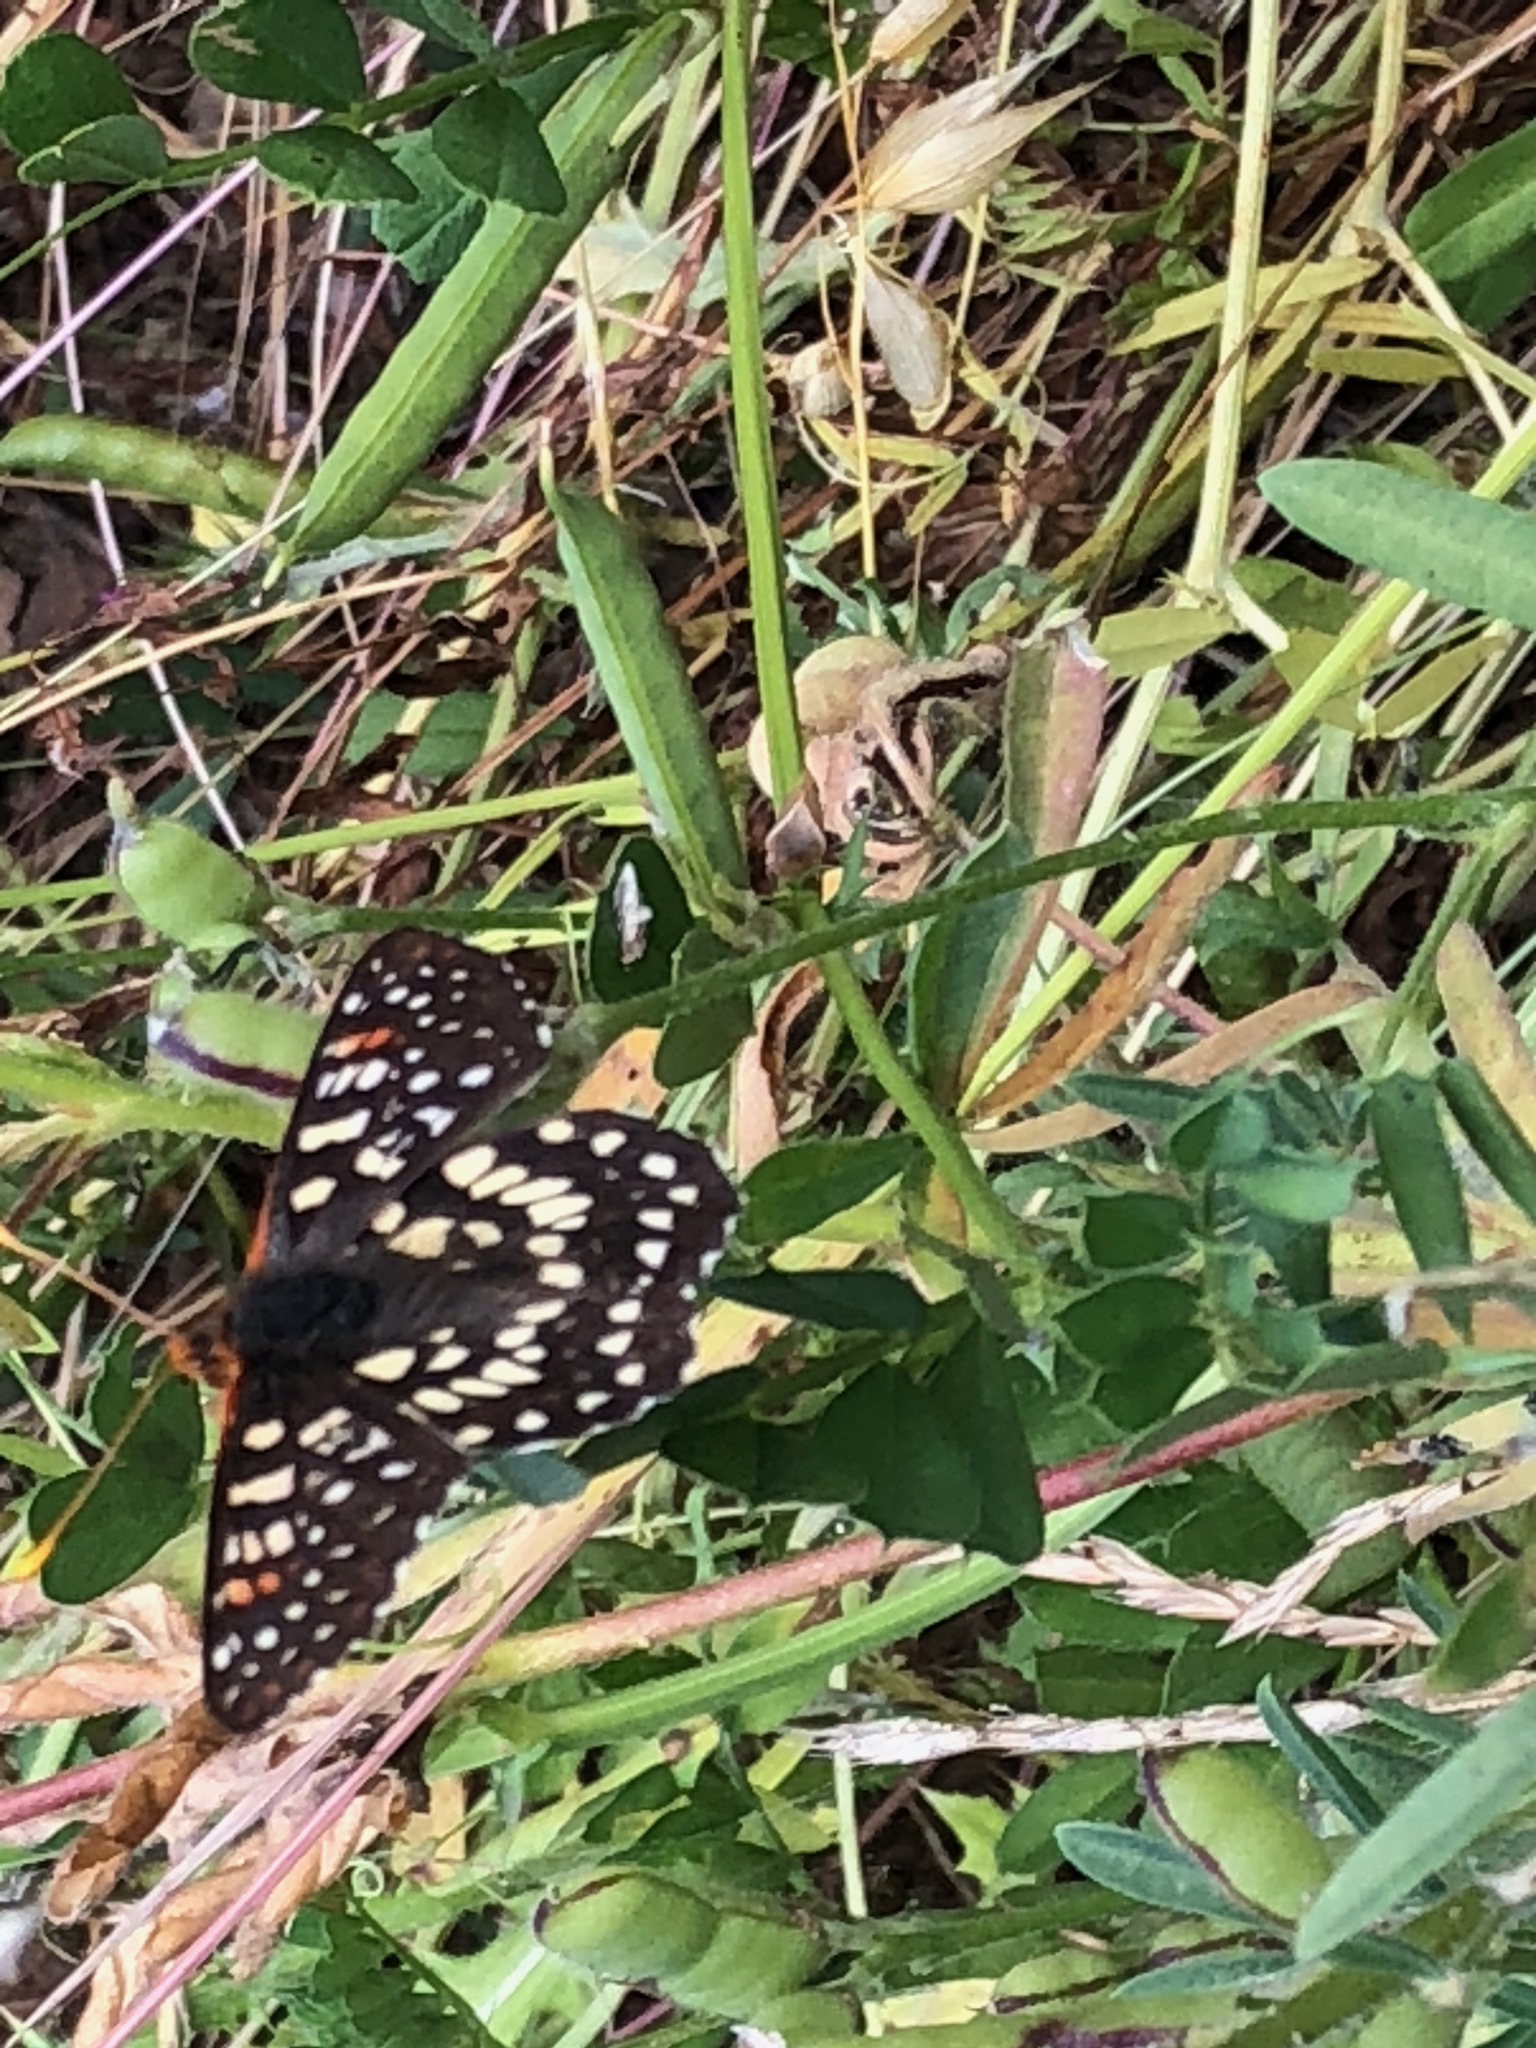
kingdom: Animalia
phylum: Arthropoda
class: Insecta
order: Lepidoptera
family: Nymphalidae
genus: Occidryas
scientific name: Occidryas chalcedona
